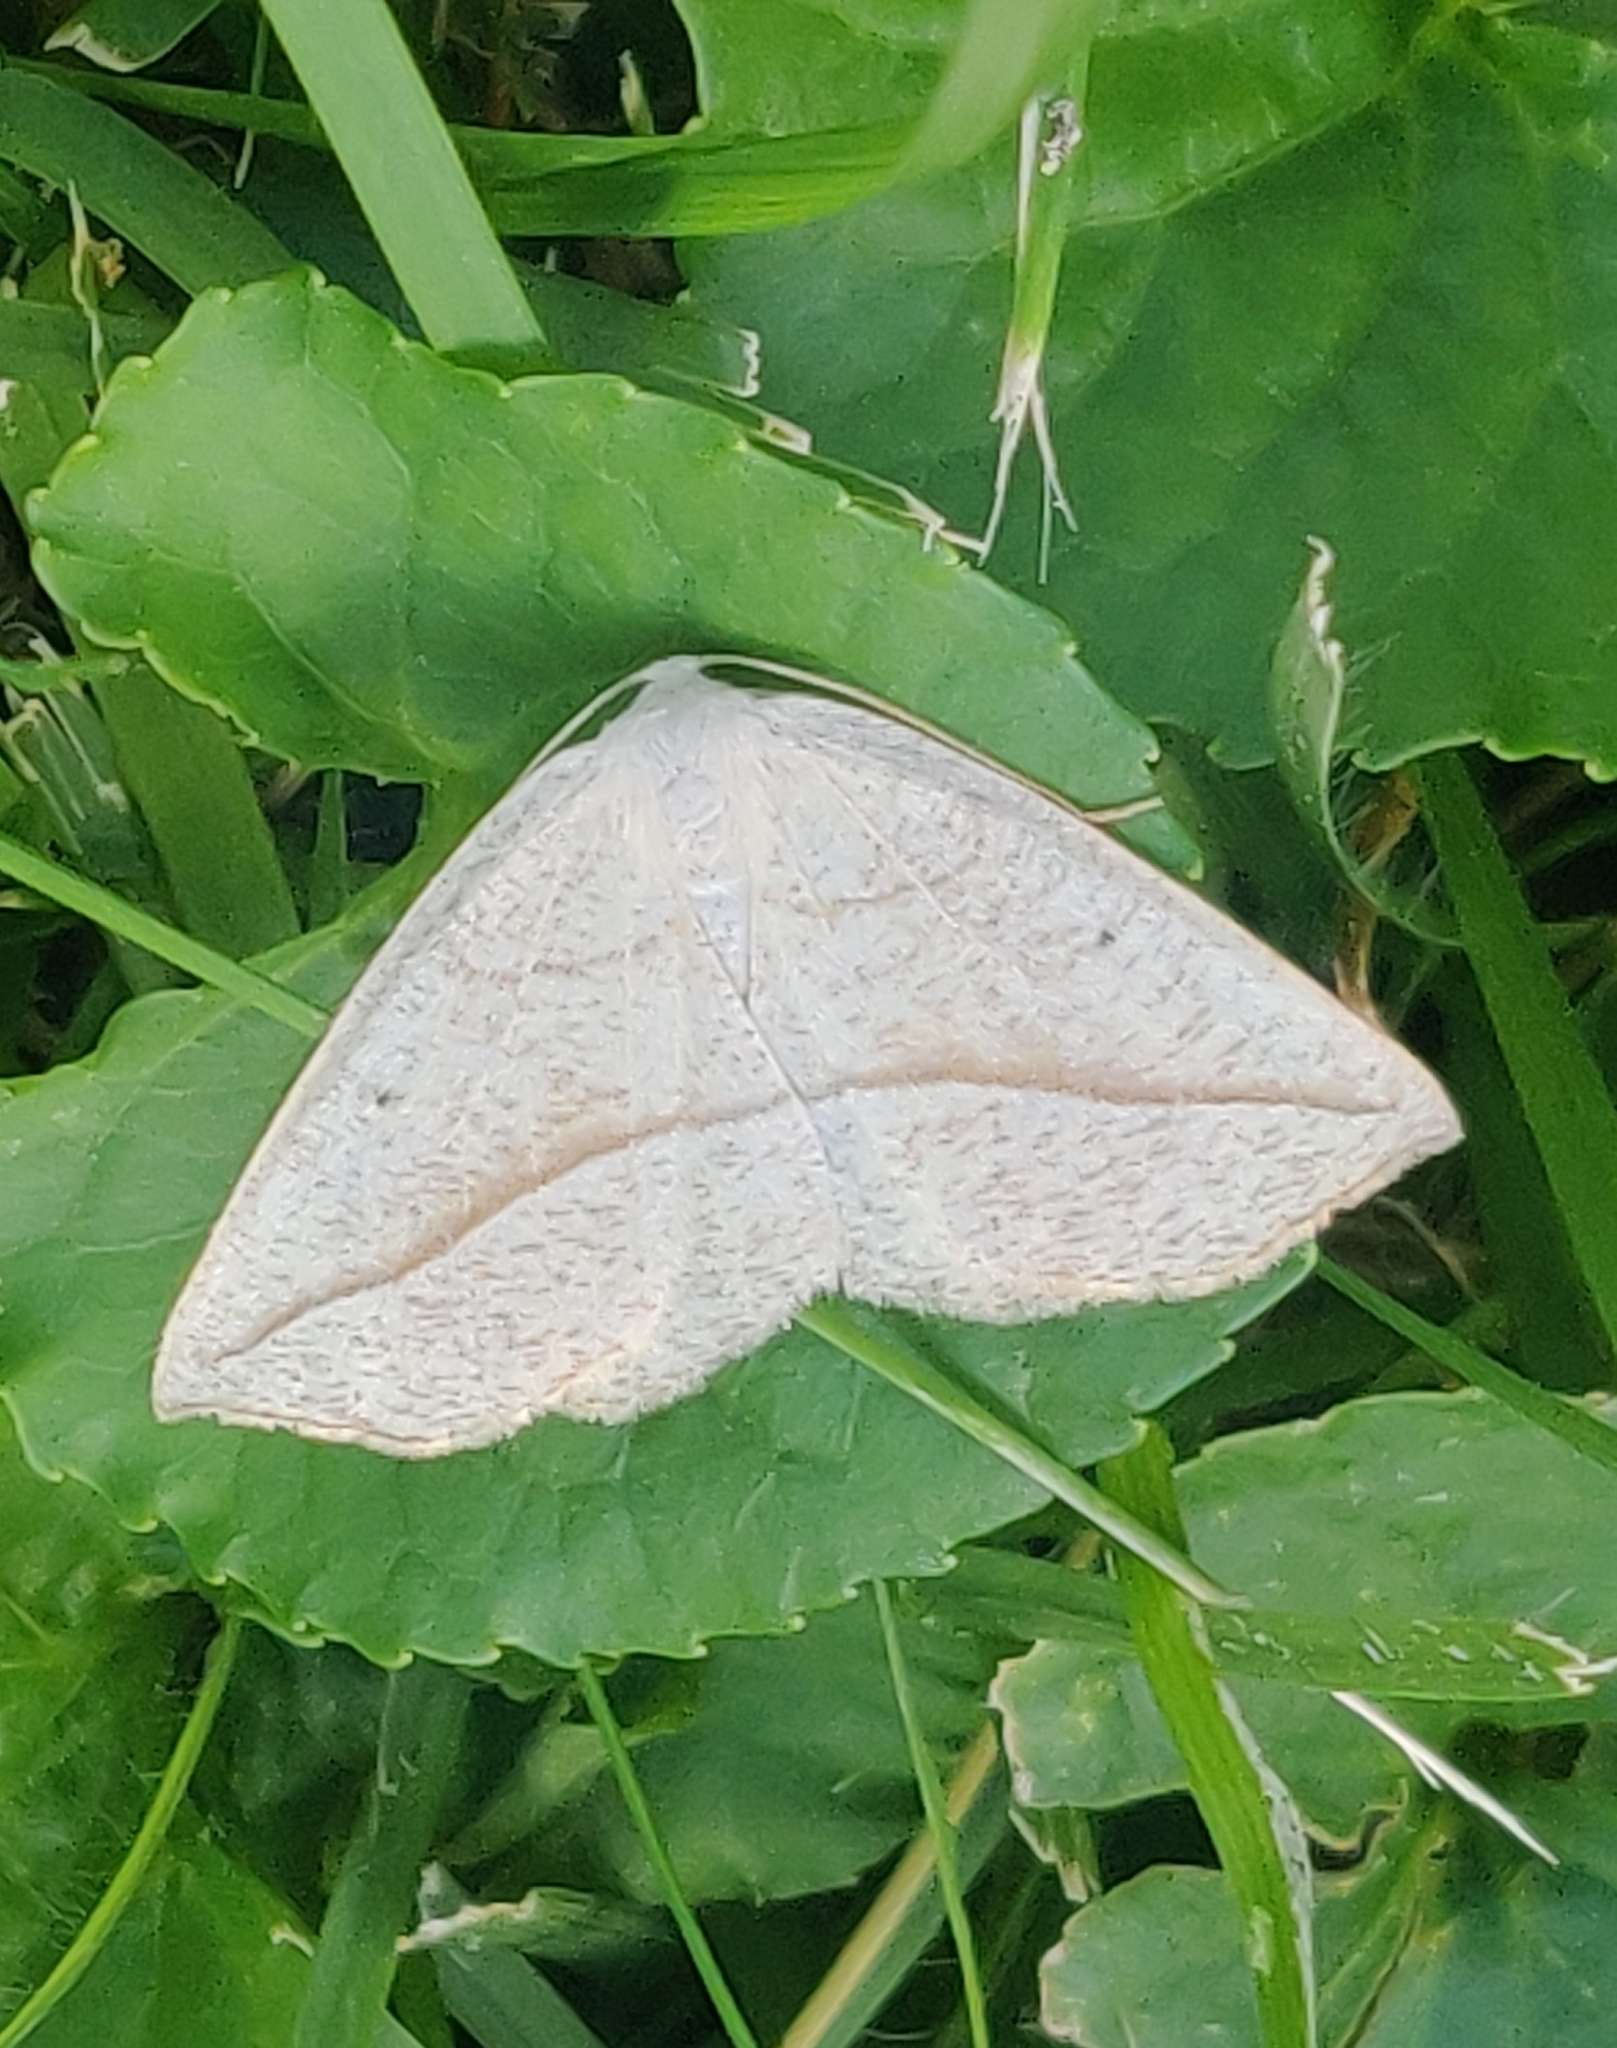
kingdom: Animalia
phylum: Arthropoda
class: Insecta
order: Lepidoptera
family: Geometridae
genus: Eusarca
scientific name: Eusarca confusaria
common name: Confused eusarca
